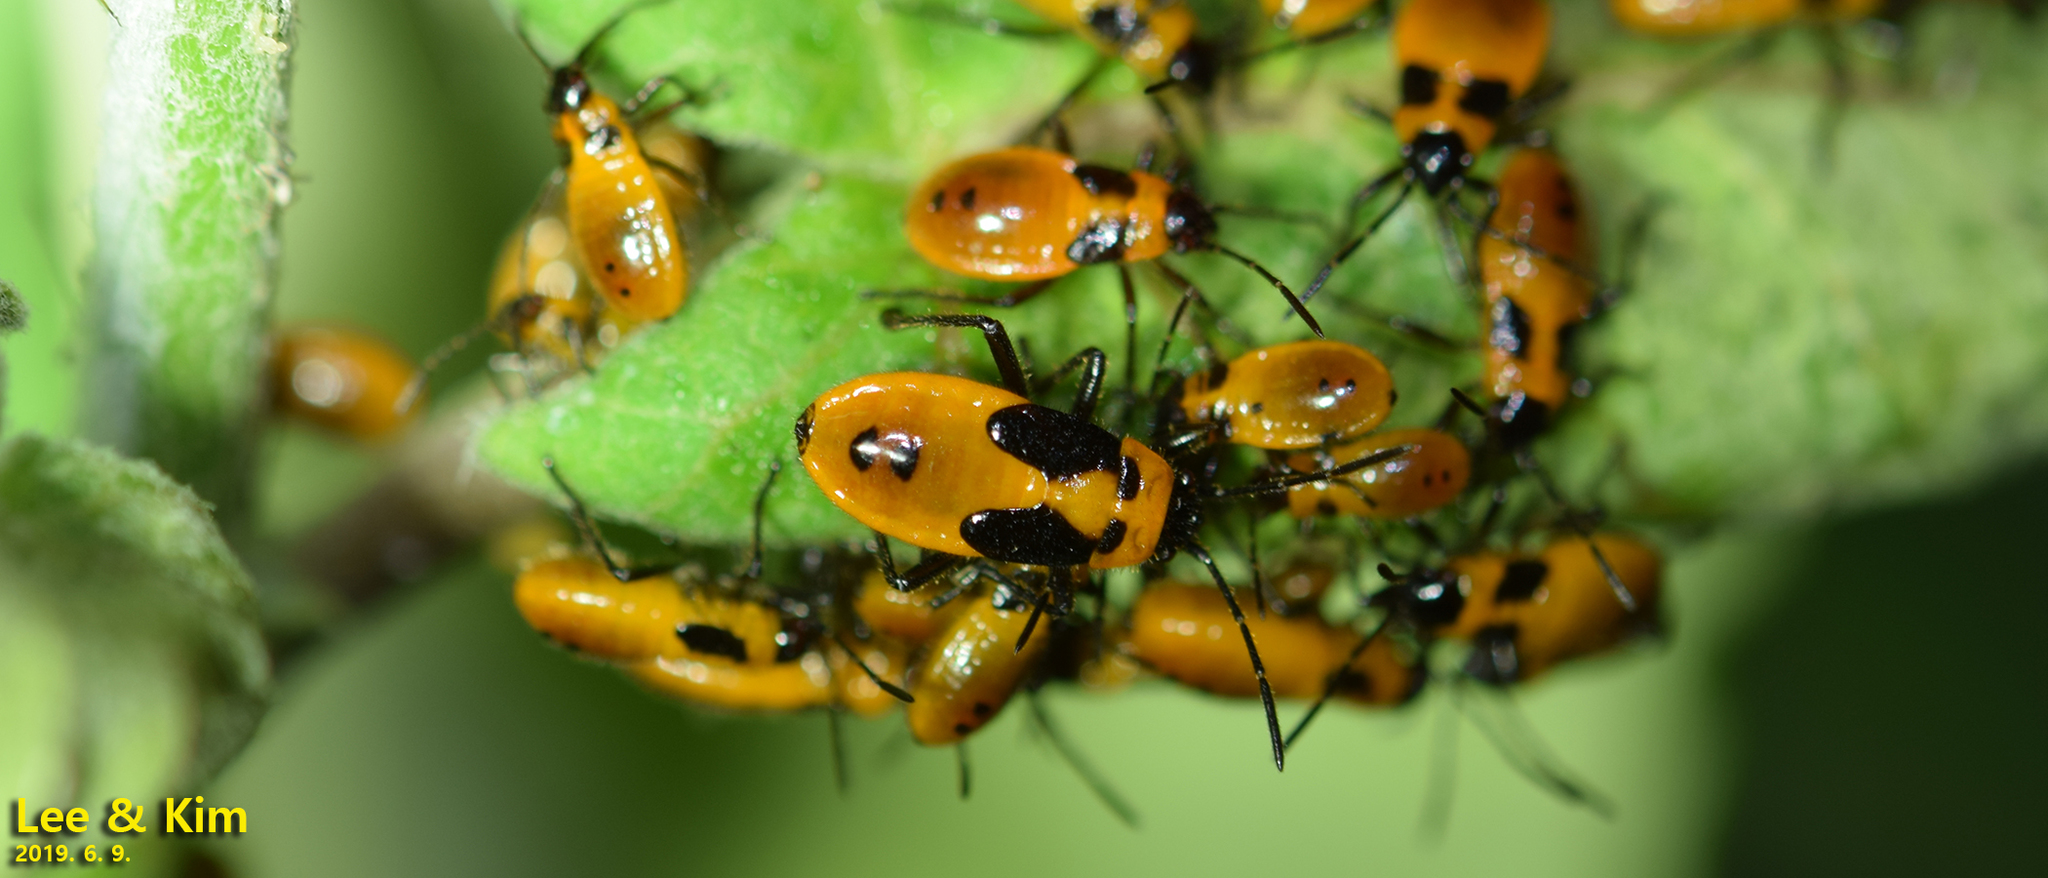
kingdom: Animalia
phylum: Arthropoda
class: Insecta
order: Hemiptera
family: Lygaeidae
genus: Tropidothorax
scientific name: Tropidothorax cruciger
